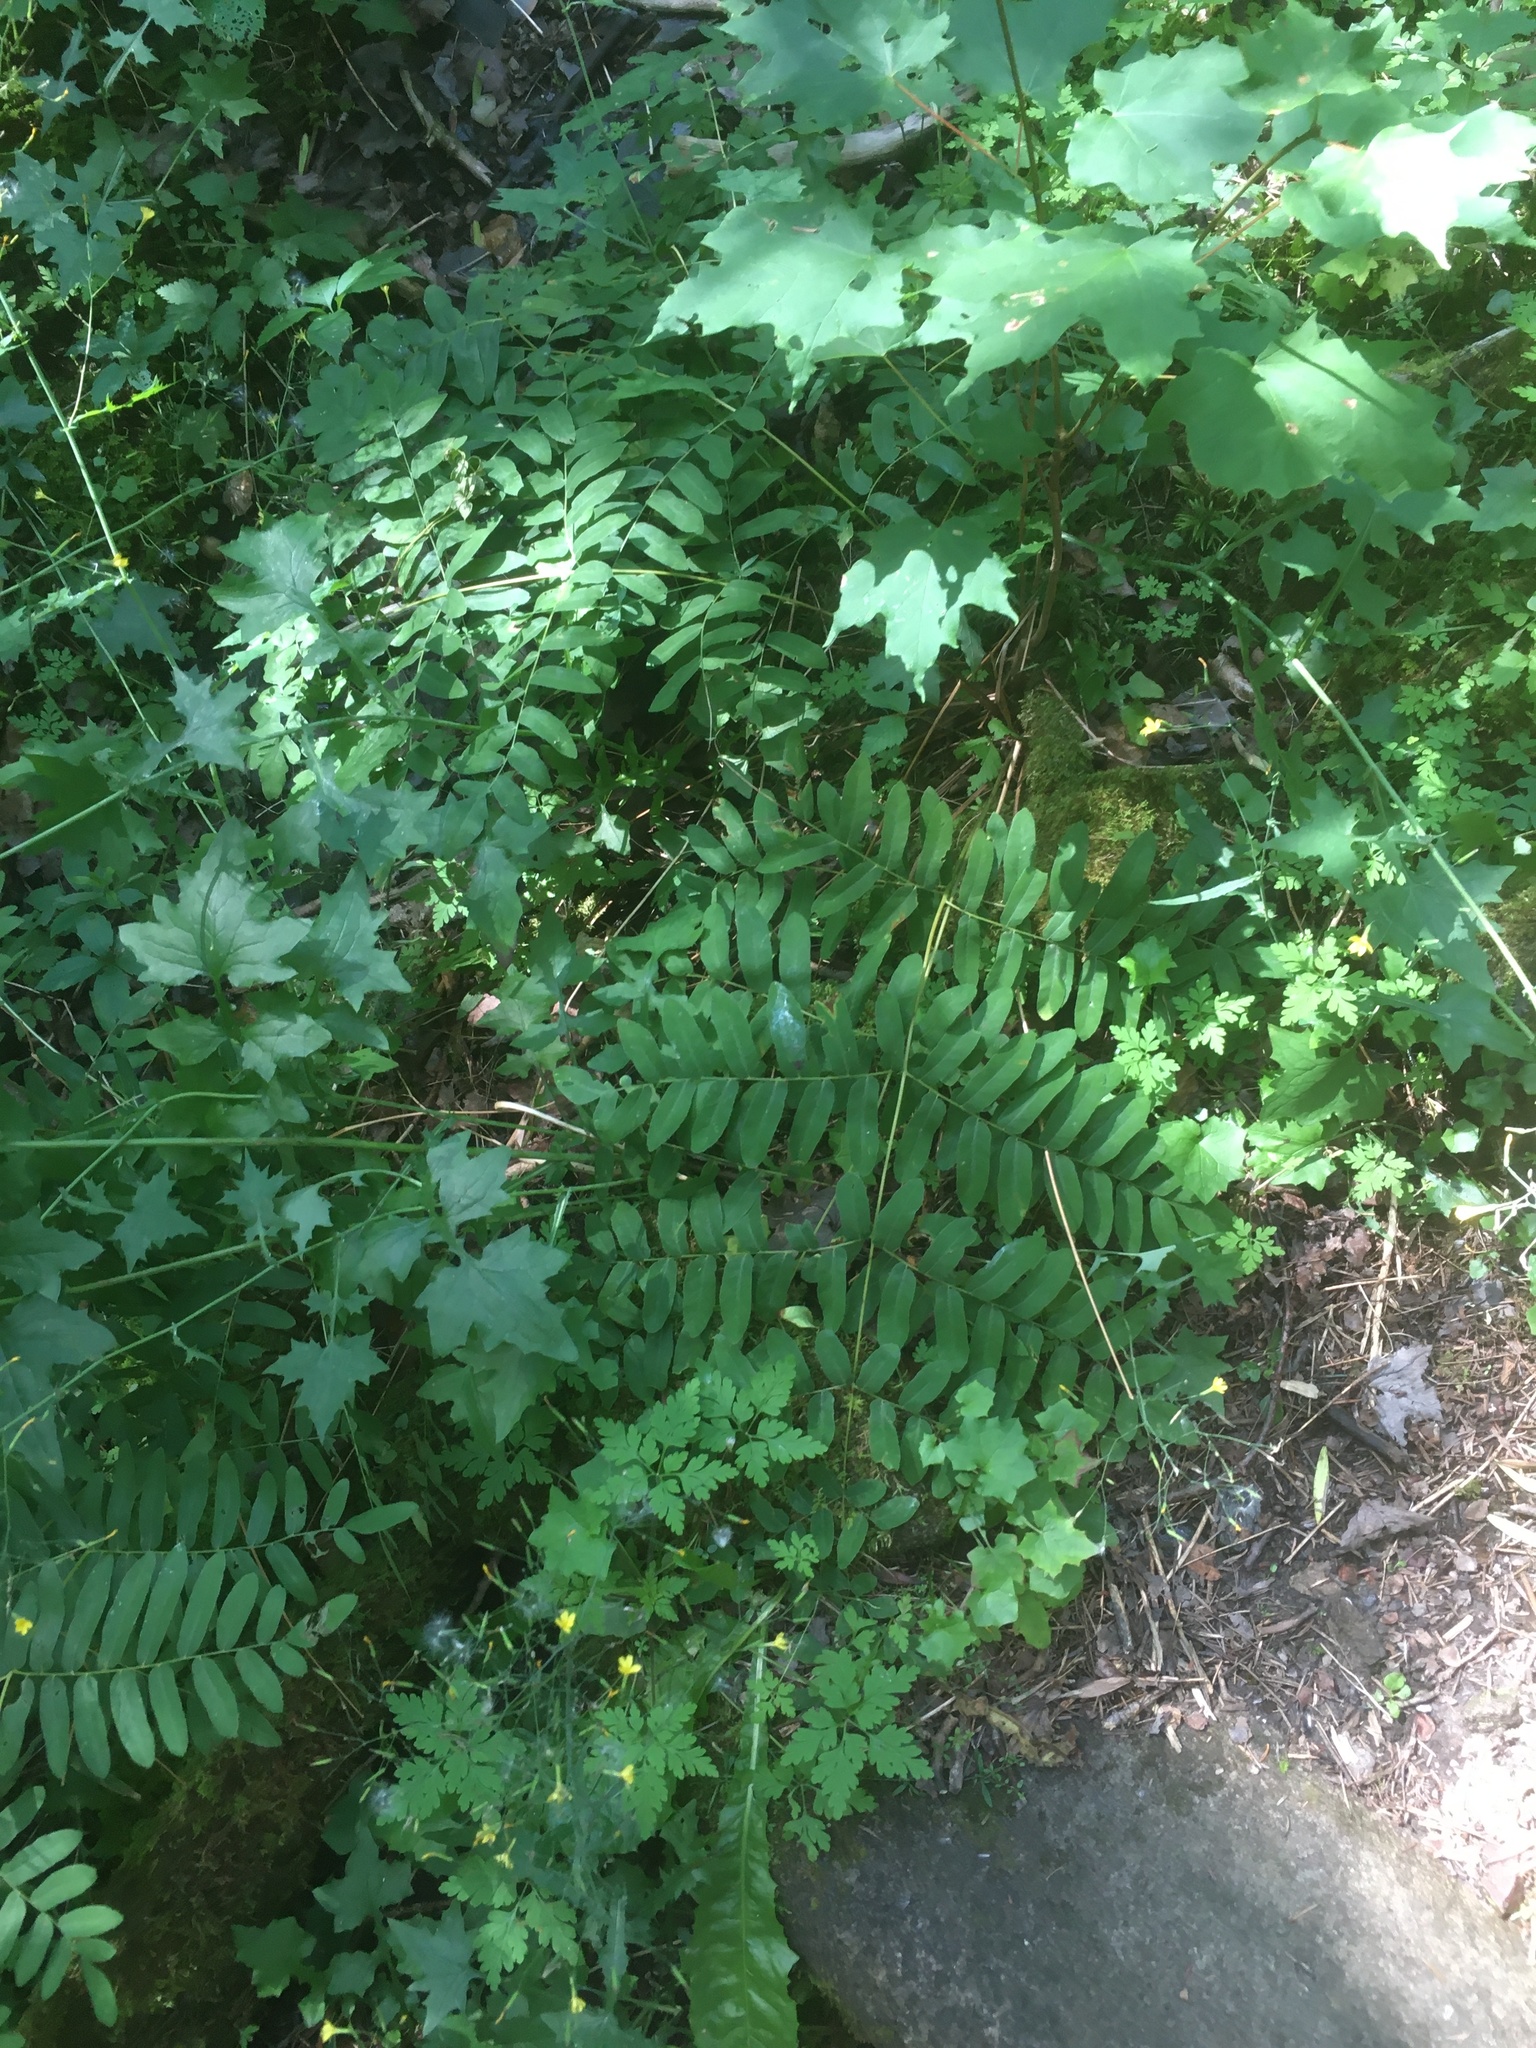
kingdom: Plantae
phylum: Tracheophyta
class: Polypodiopsida
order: Osmundales
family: Osmundaceae
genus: Osmunda
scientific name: Osmunda spectabilis
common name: American royal fern
